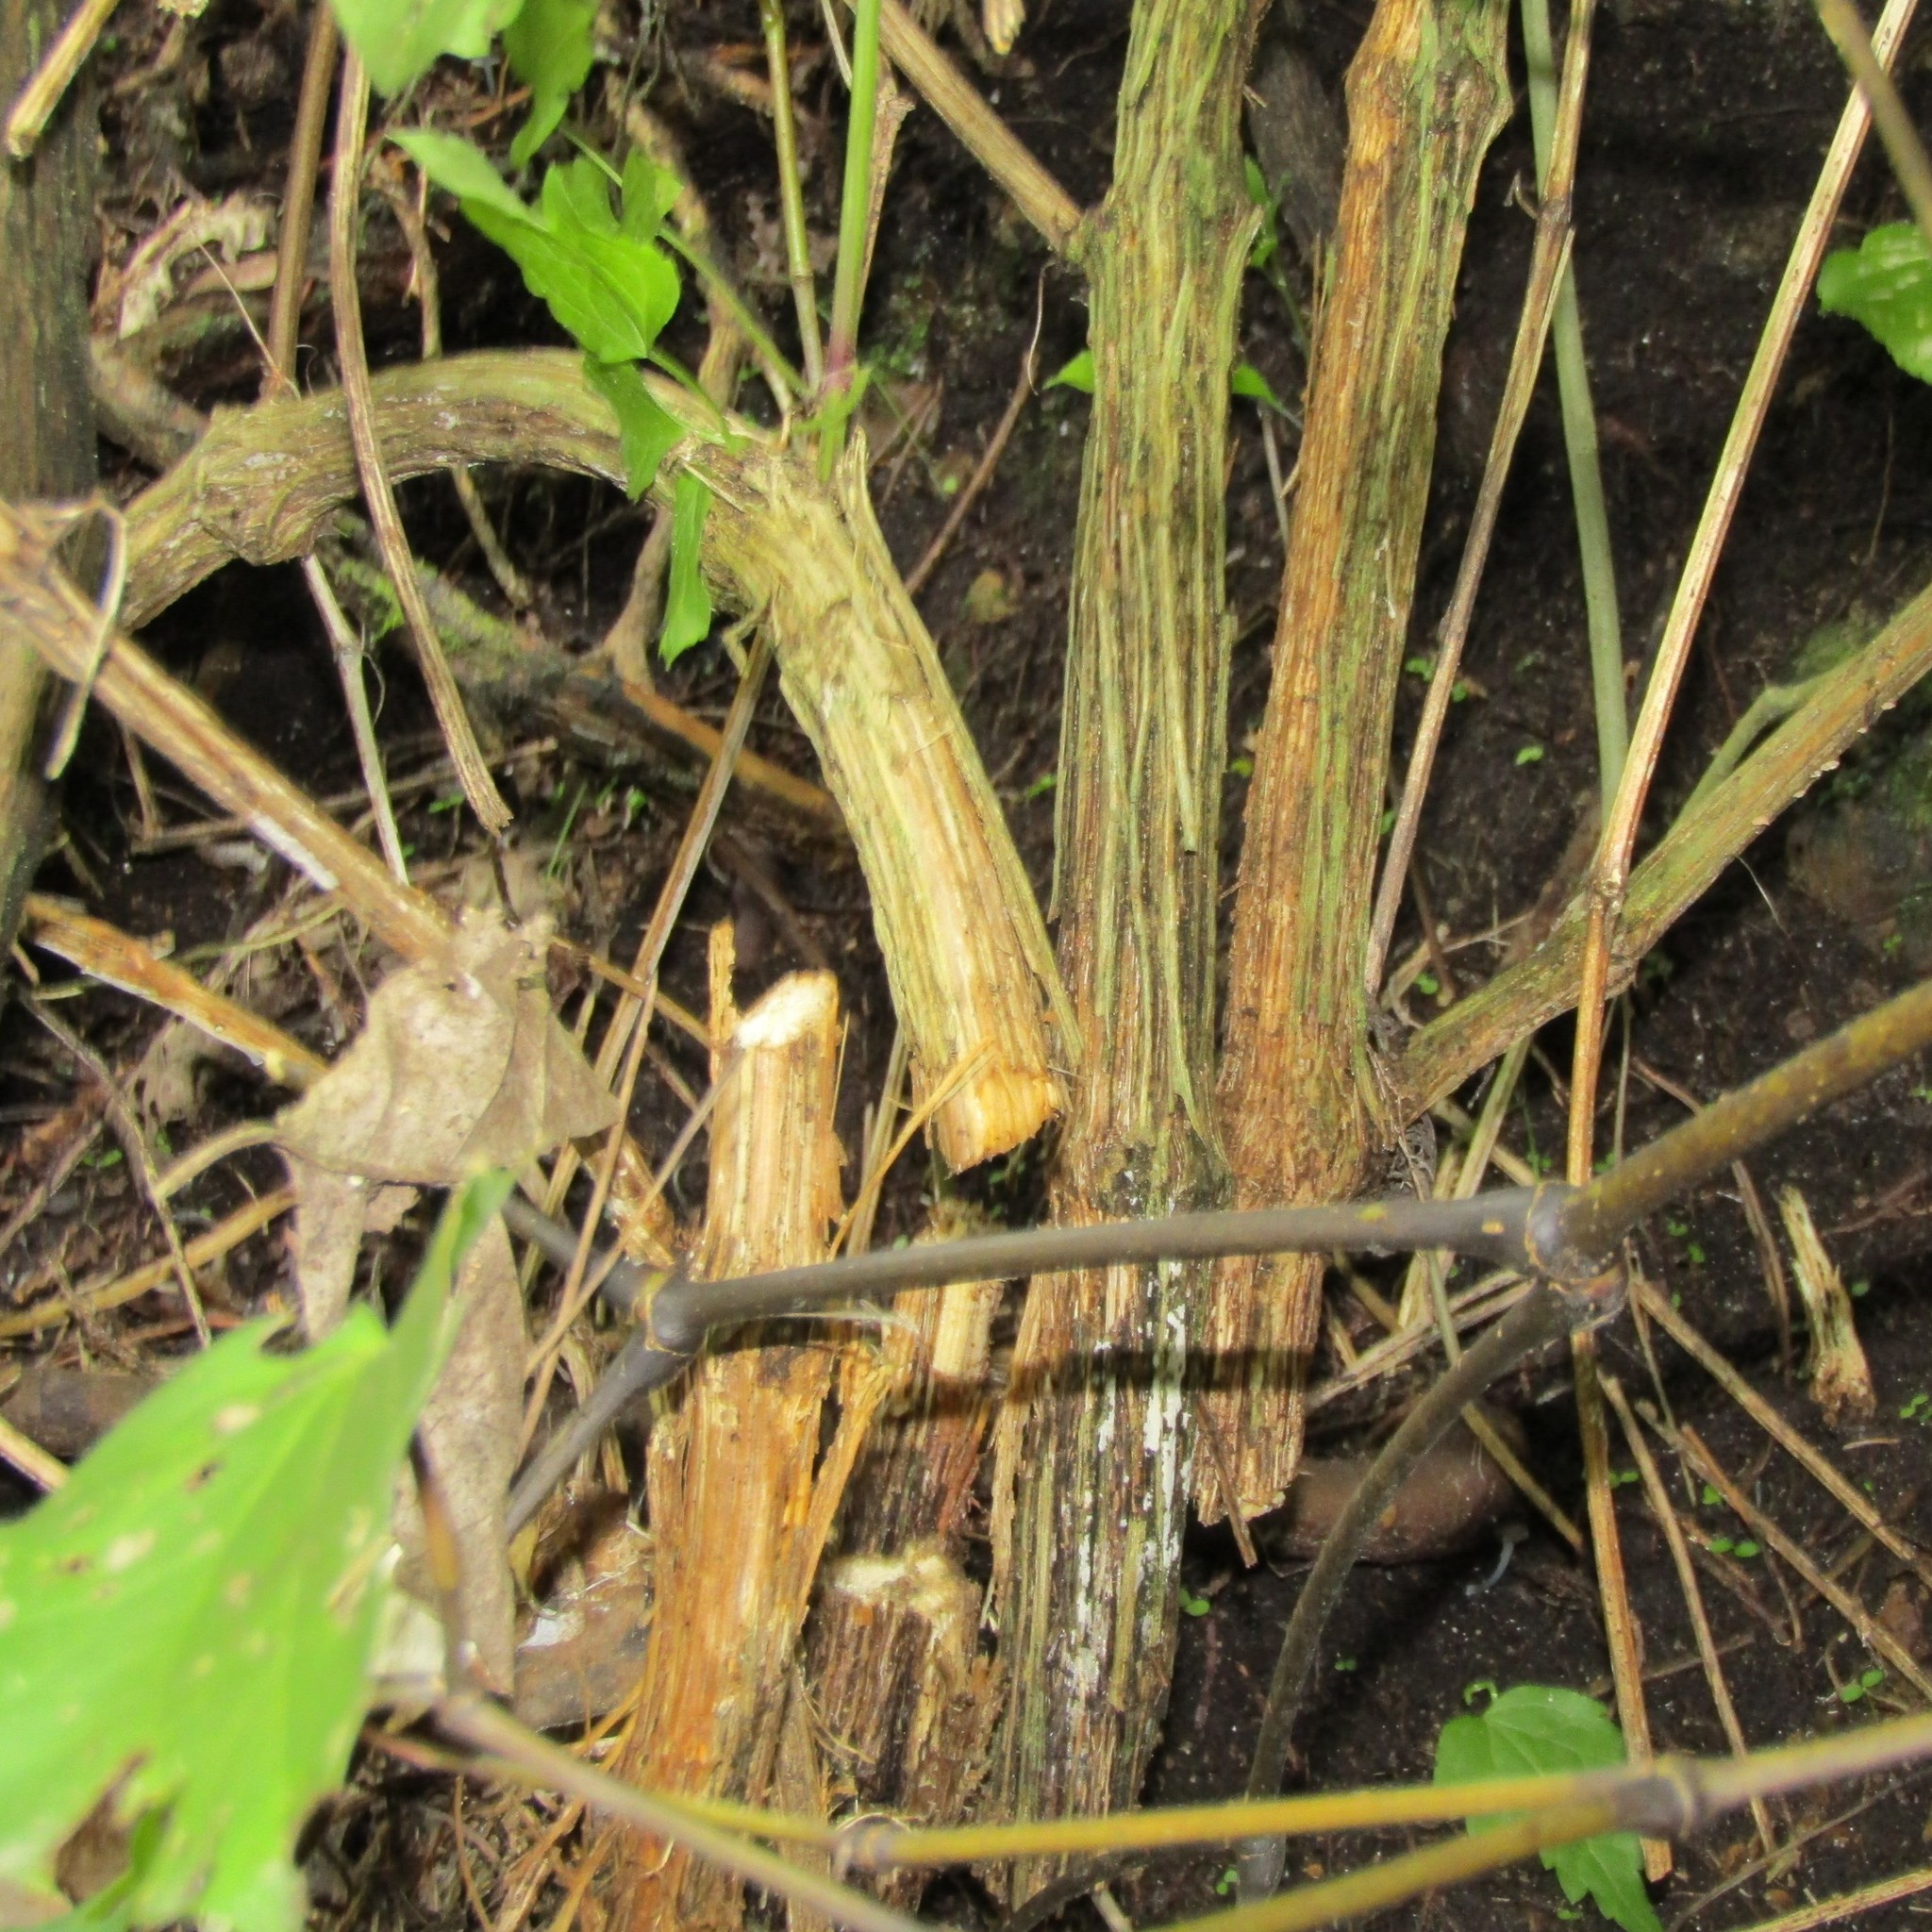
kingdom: Plantae
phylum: Tracheophyta
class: Magnoliopsida
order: Ranunculales
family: Ranunculaceae
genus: Clematis
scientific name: Clematis vitalba
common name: Evergreen clematis
